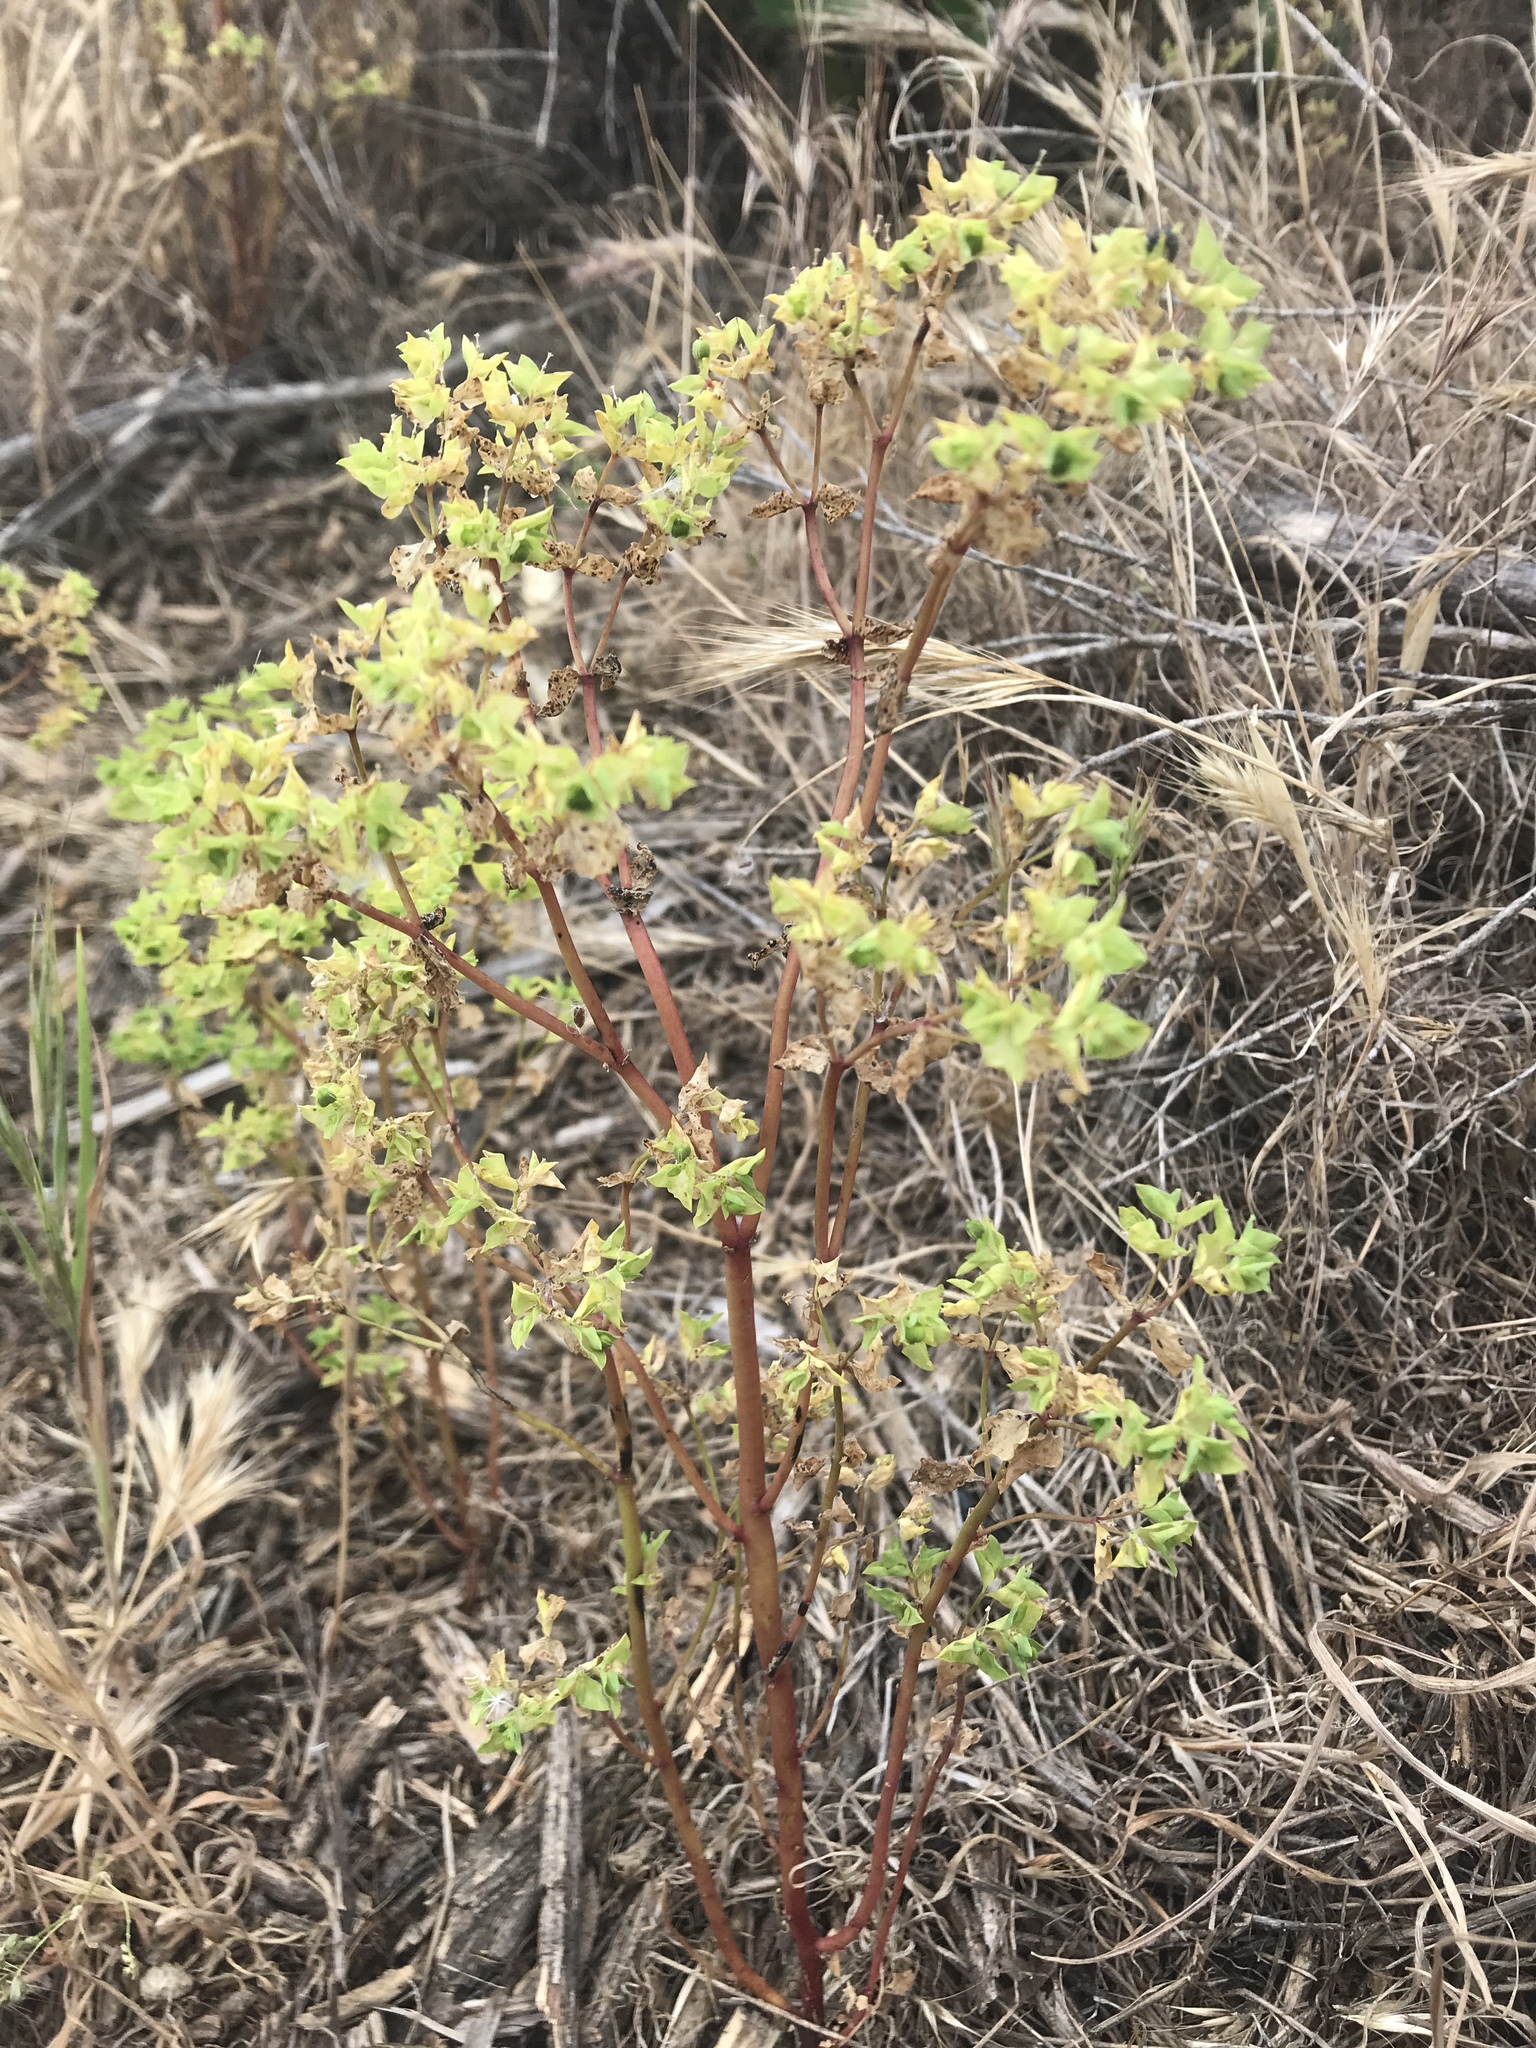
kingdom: Plantae
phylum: Tracheophyta
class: Magnoliopsida
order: Malpighiales
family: Euphorbiaceae
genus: Euphorbia
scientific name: Euphorbia peplus
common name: Petty spurge
